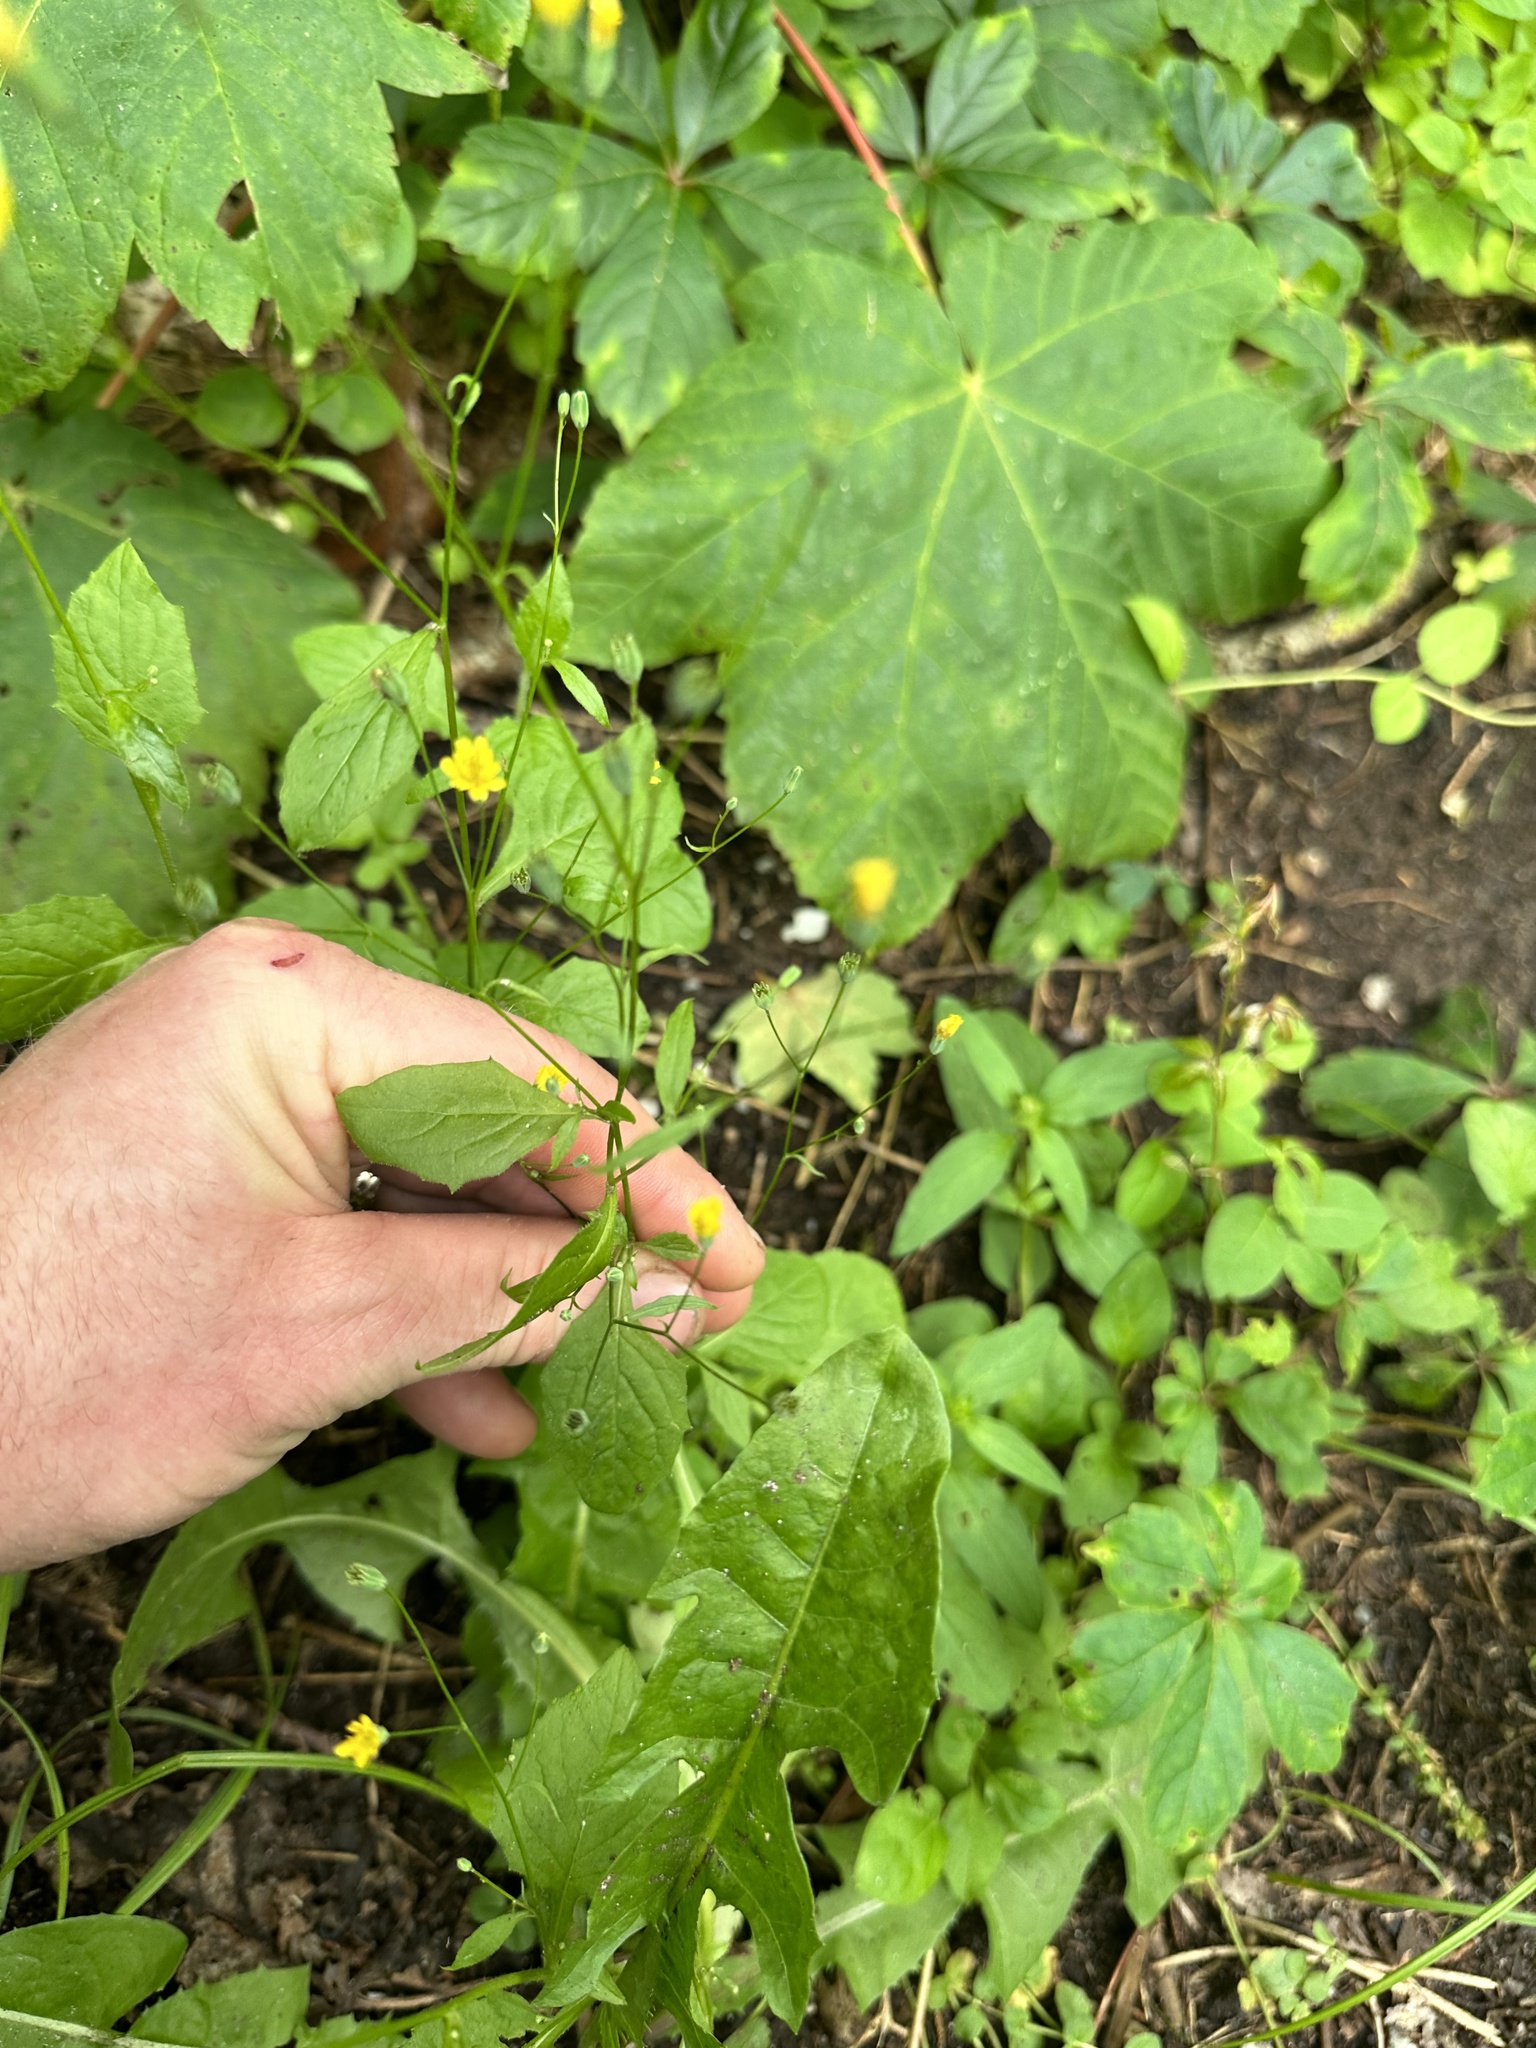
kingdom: Plantae
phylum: Tracheophyta
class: Magnoliopsida
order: Asterales
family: Asteraceae
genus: Lapsana
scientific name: Lapsana communis
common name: Nipplewort
